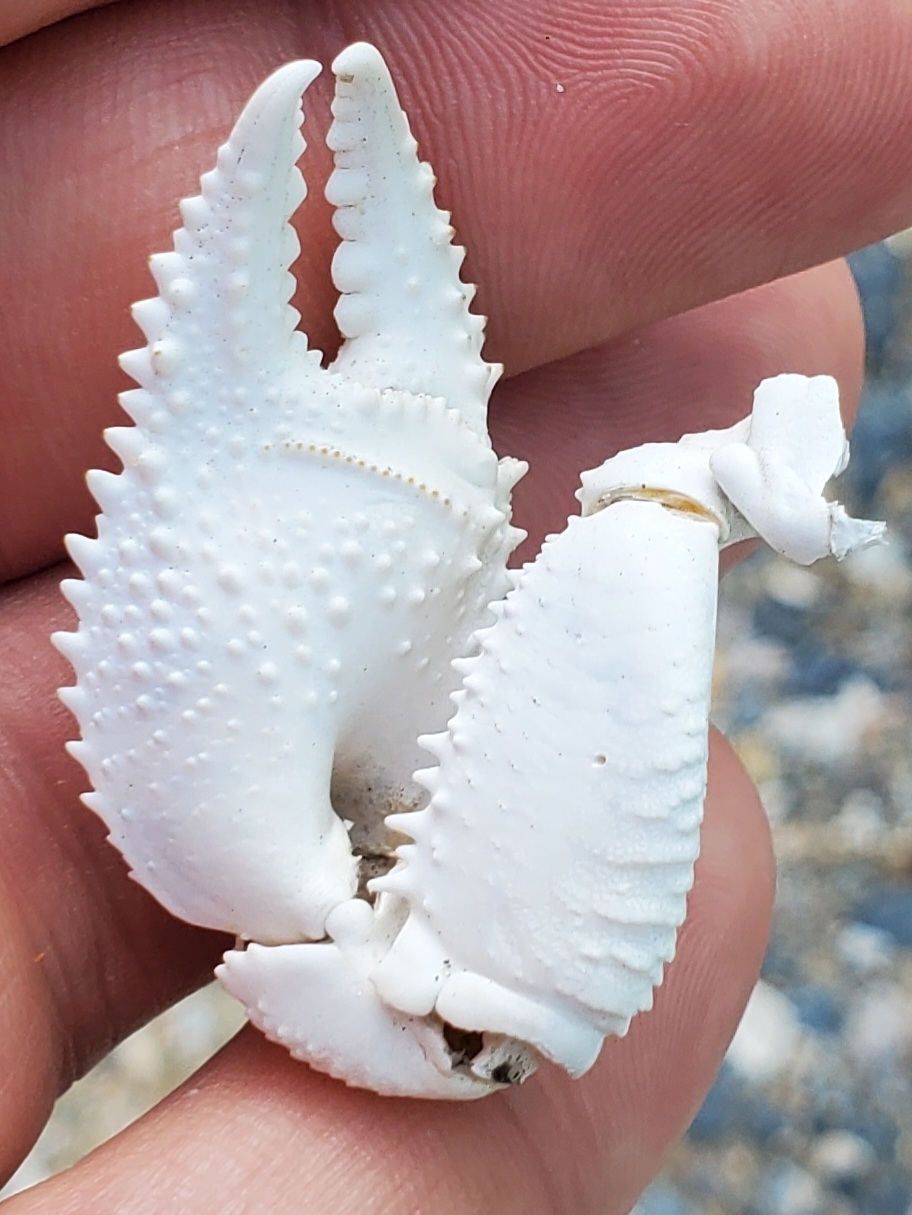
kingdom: Animalia
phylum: Arthropoda
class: Malacostraca
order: Decapoda
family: Ocypodidae
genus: Ocypode
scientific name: Ocypode quadrata
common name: Ghost crab
